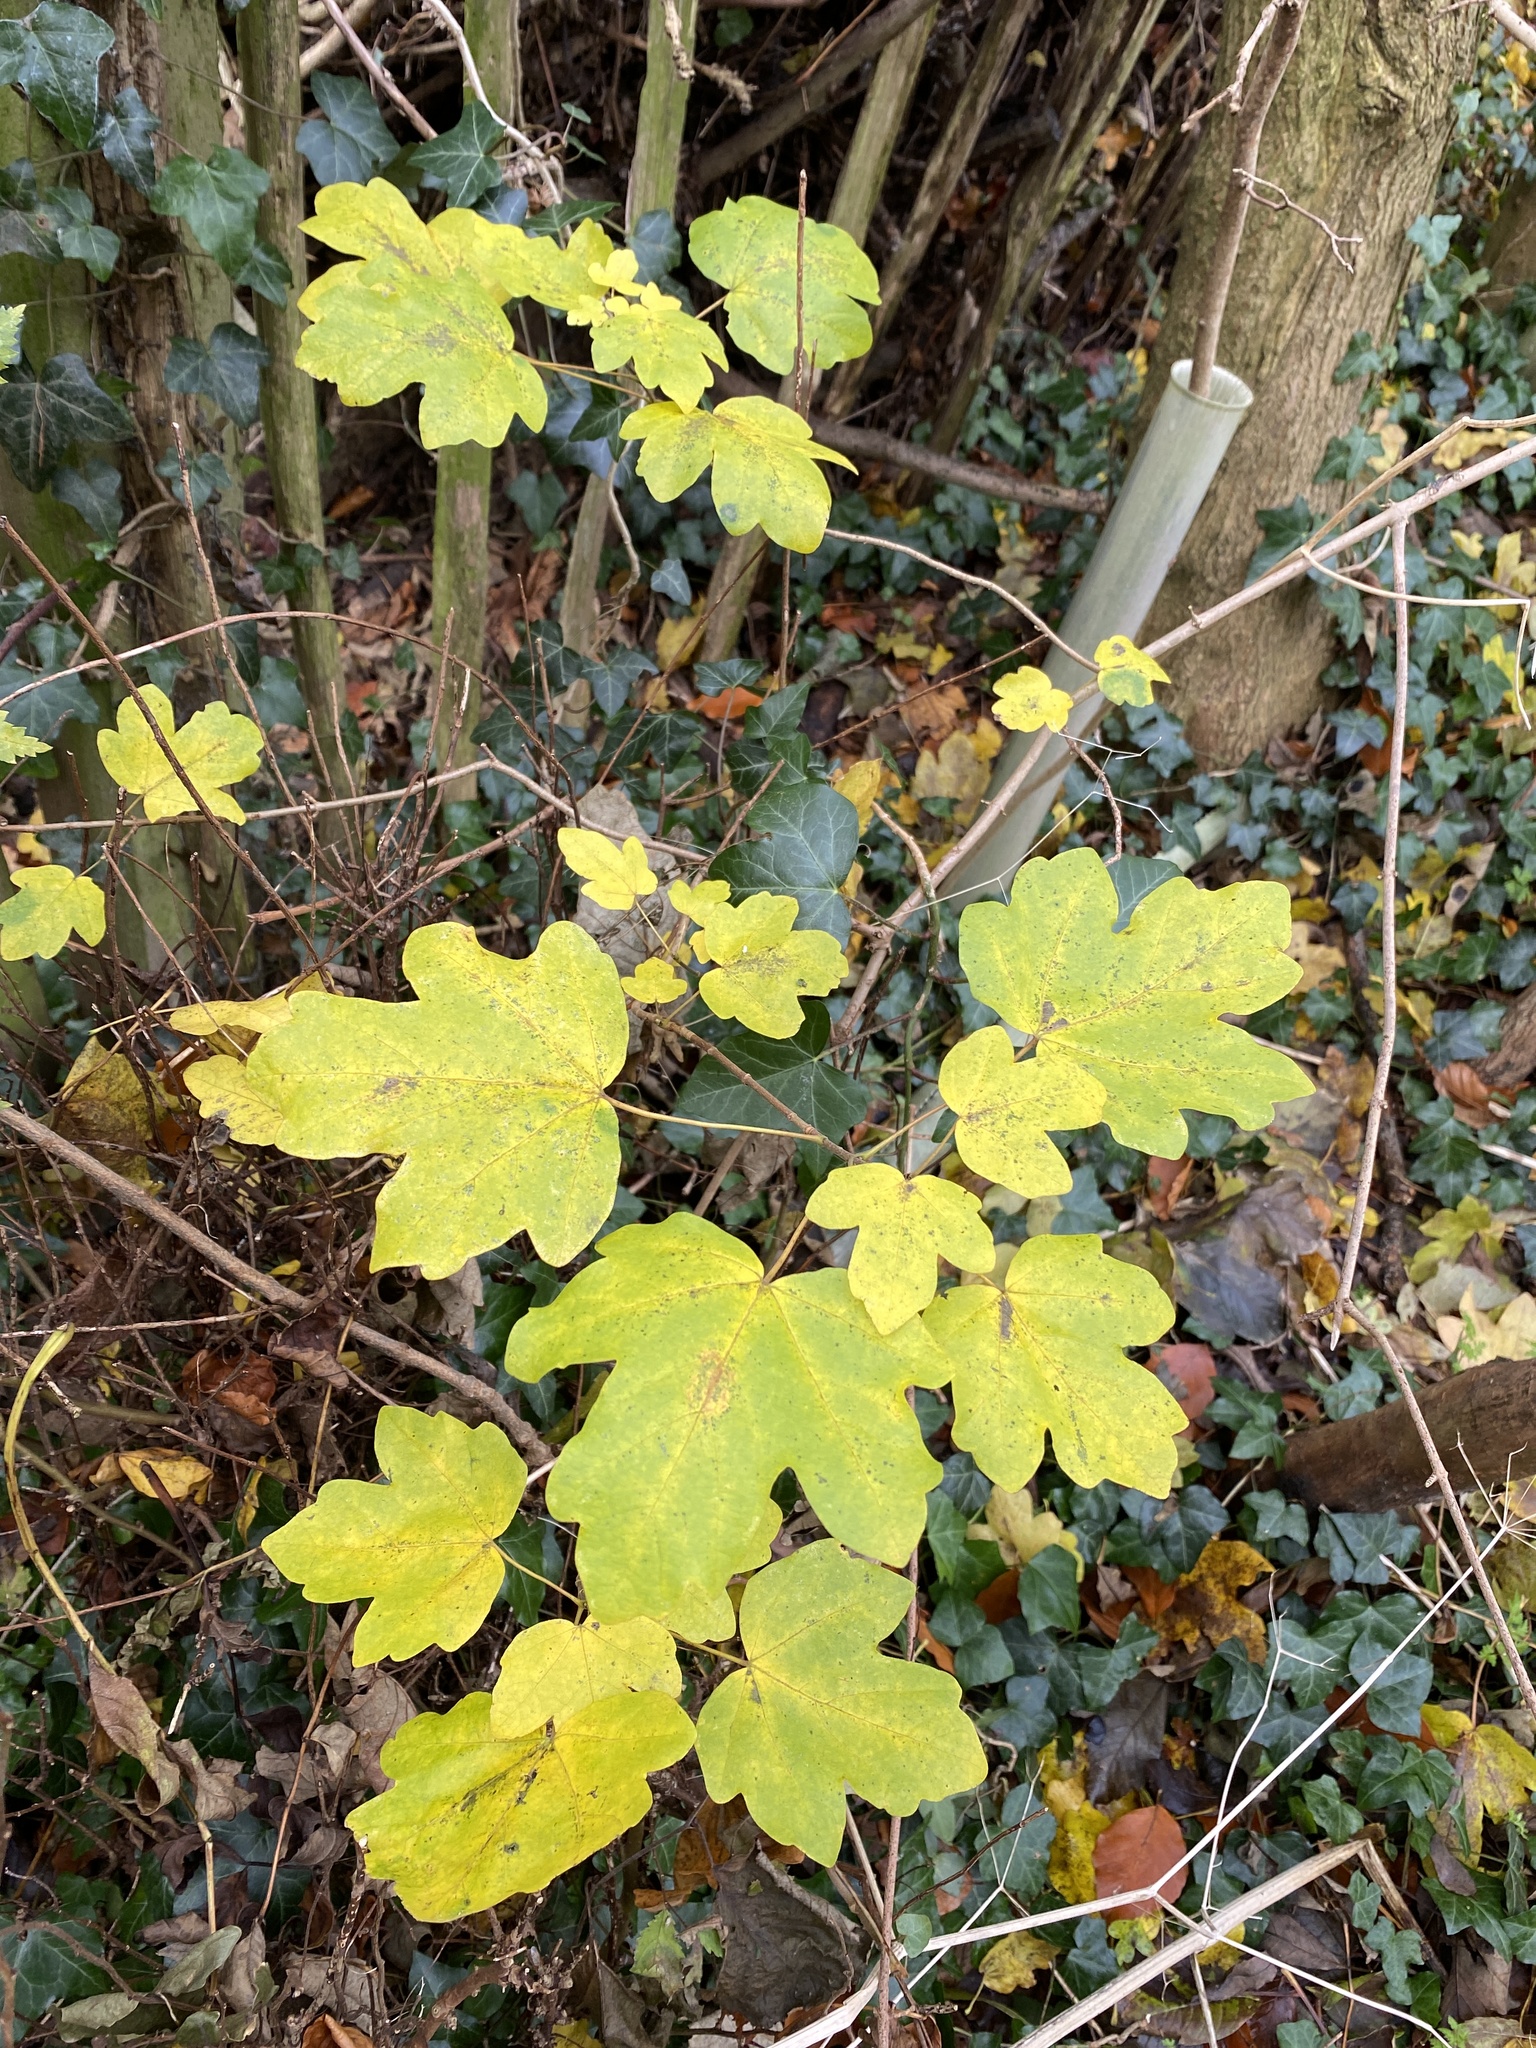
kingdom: Plantae
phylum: Tracheophyta
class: Magnoliopsida
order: Sapindales
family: Sapindaceae
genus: Acer
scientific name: Acer campestre
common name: Field maple
